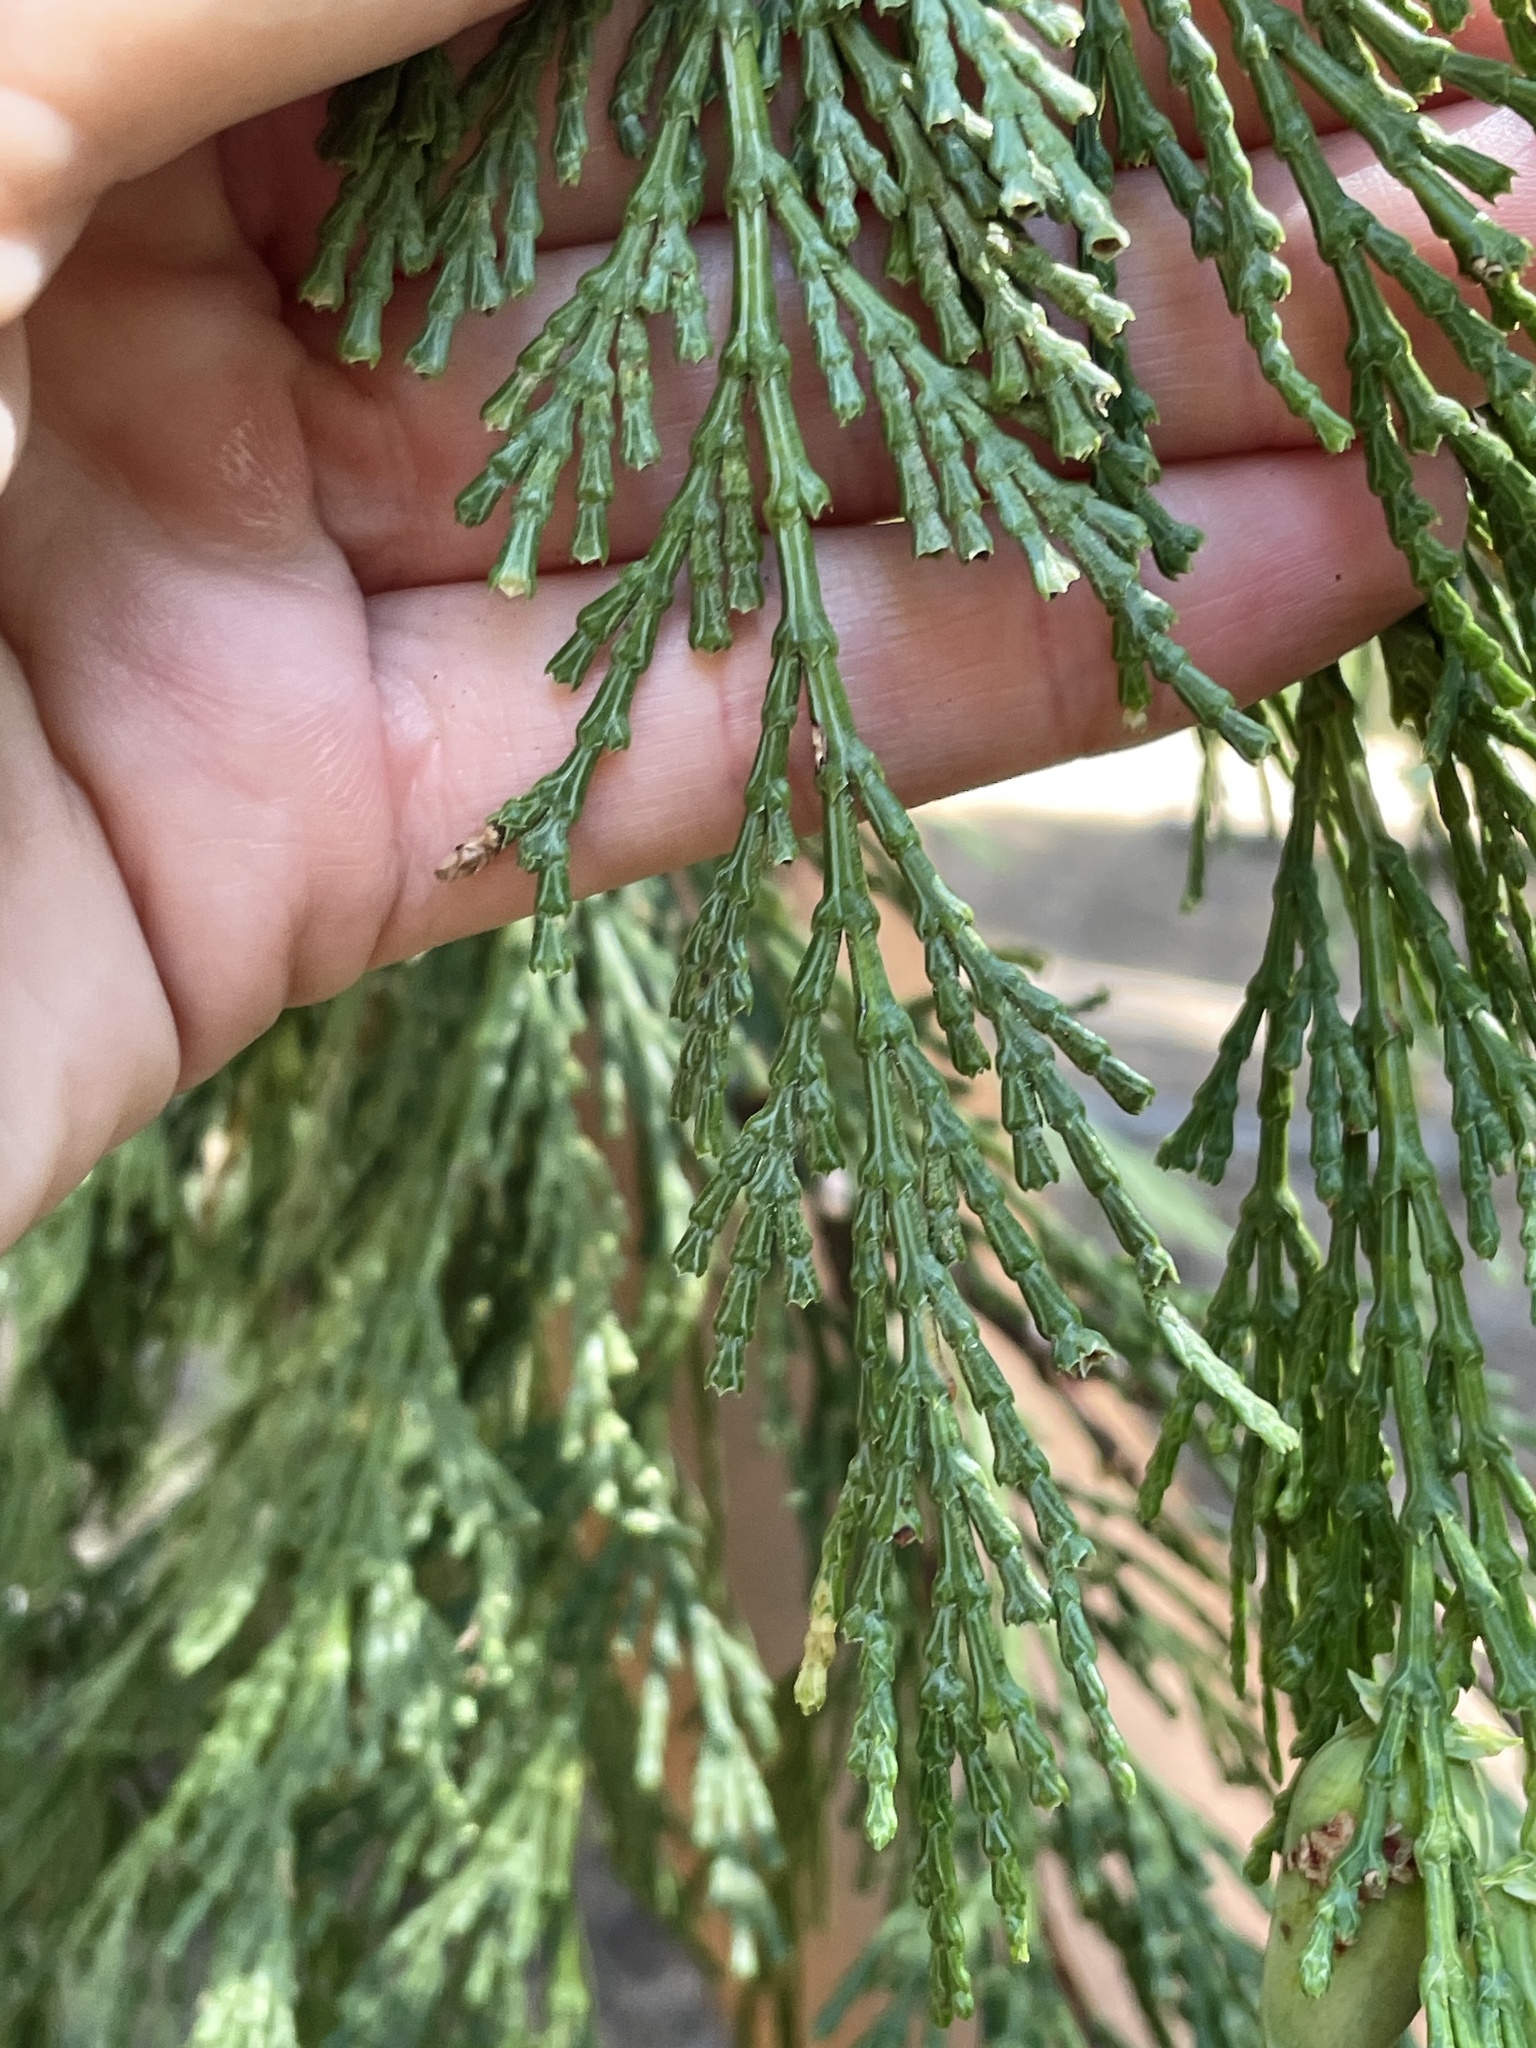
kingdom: Plantae
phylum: Tracheophyta
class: Pinopsida
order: Pinales
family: Cupressaceae
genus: Calocedrus
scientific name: Calocedrus decurrens
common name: Californian incense-cedar
